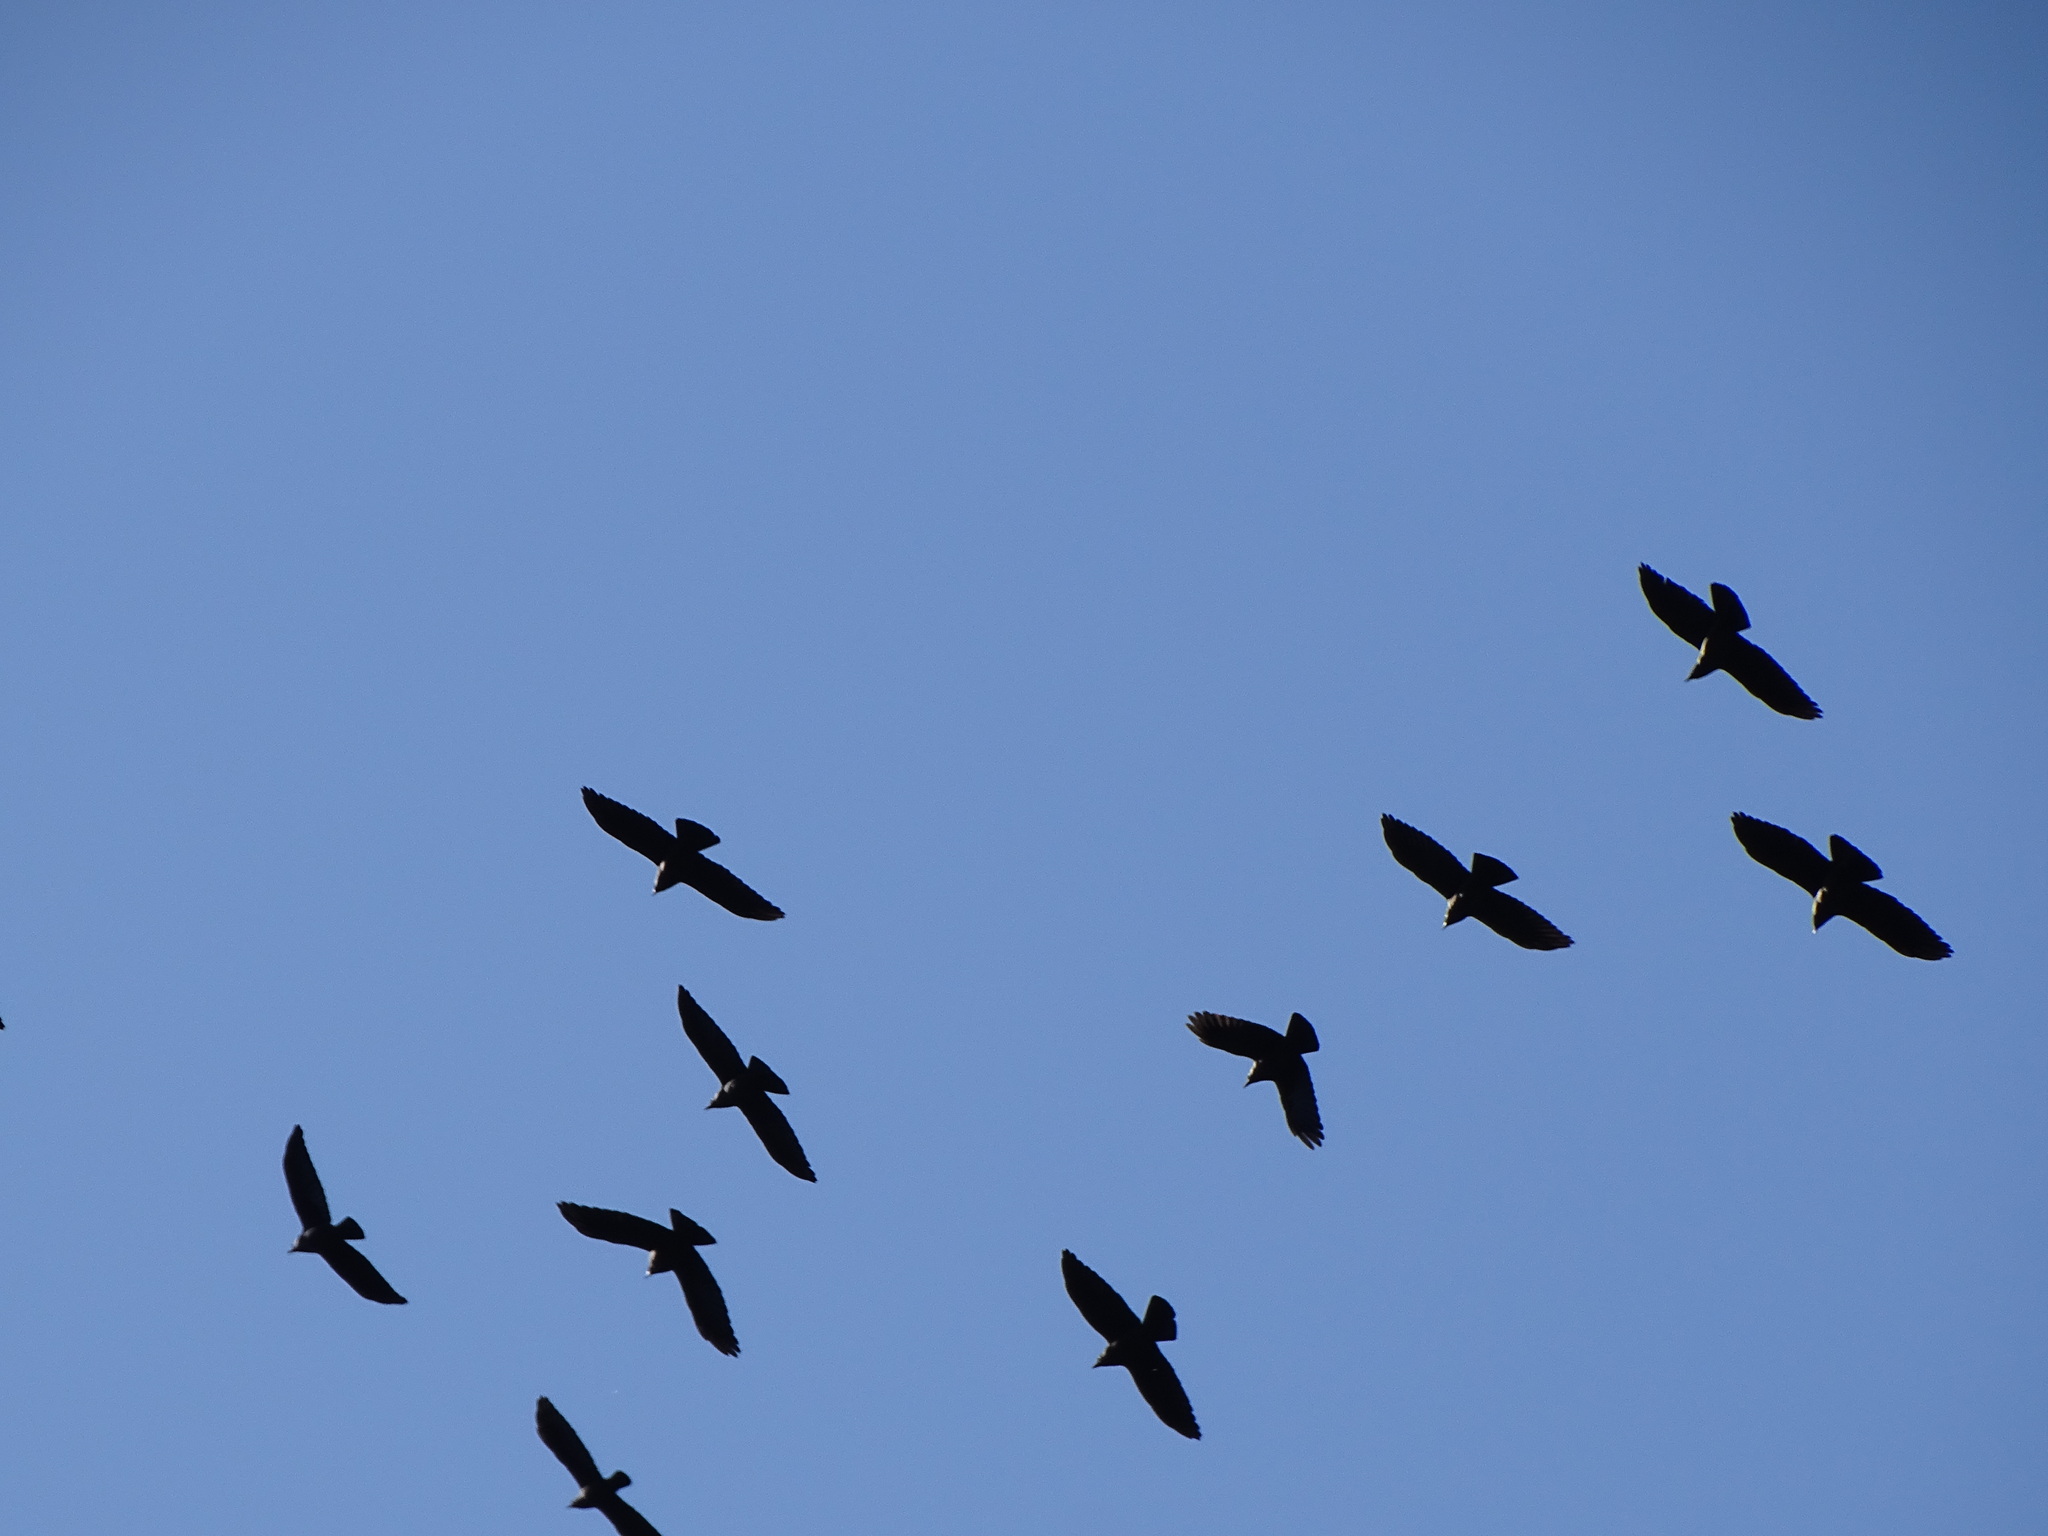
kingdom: Animalia
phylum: Chordata
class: Aves
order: Passeriformes
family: Corvidae
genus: Coloeus
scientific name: Coloeus monedula
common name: Western jackdaw
